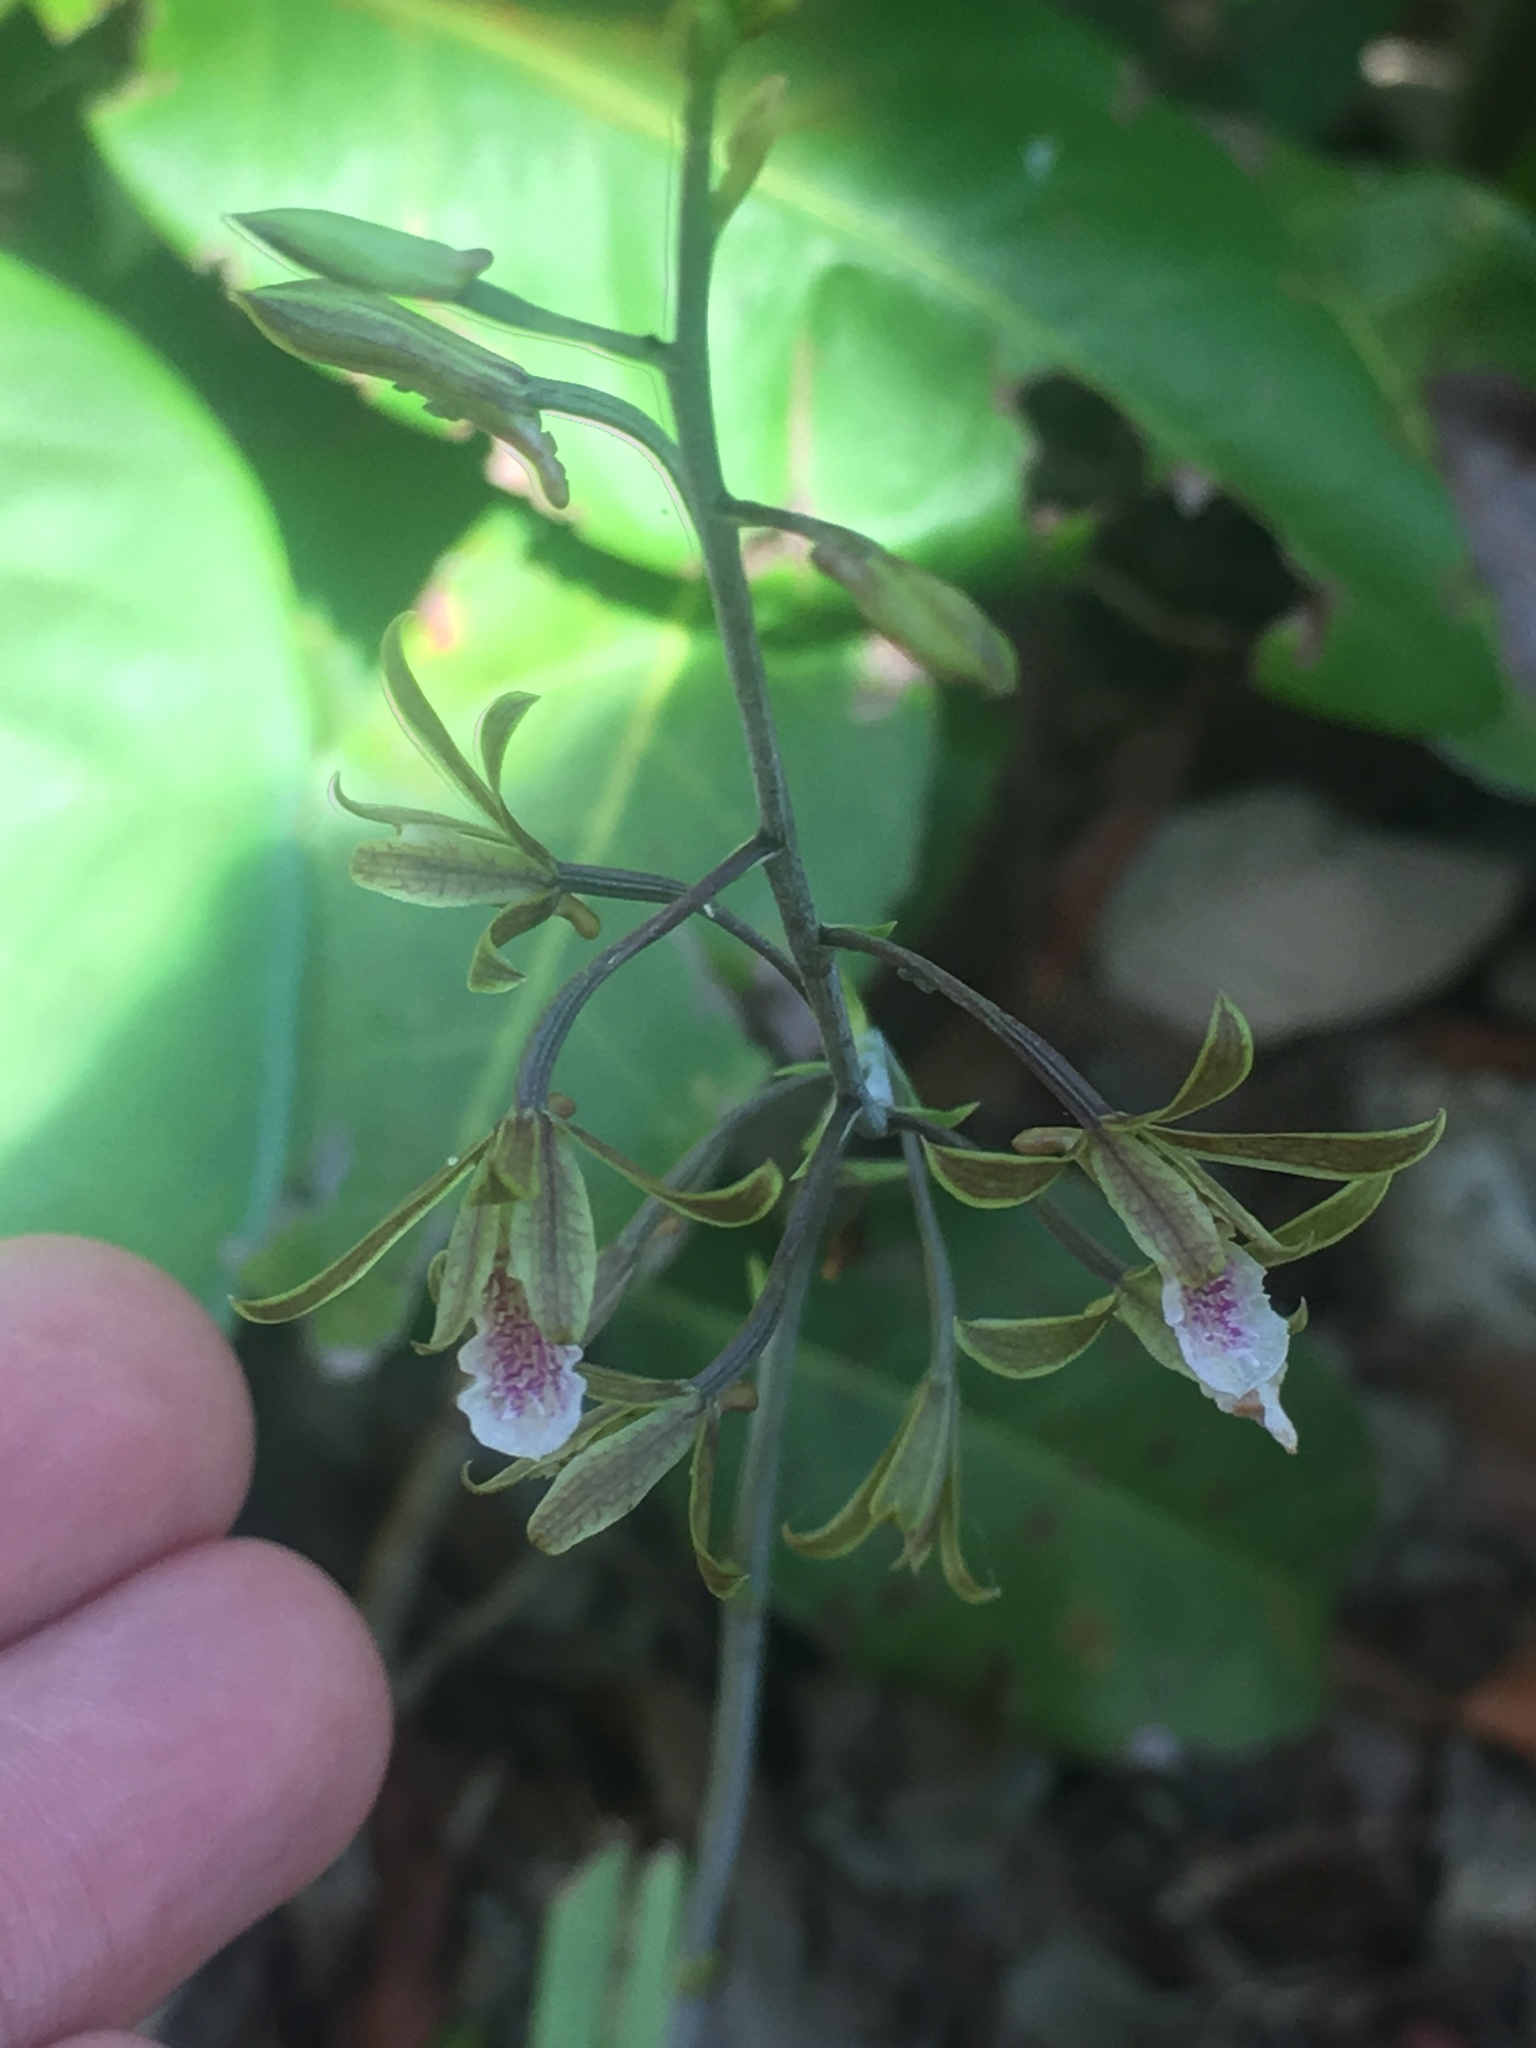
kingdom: Plantae
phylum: Tracheophyta
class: Liliopsida
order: Asparagales
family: Orchidaceae
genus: Eulophia
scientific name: Eulophia graminea
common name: Orchid
